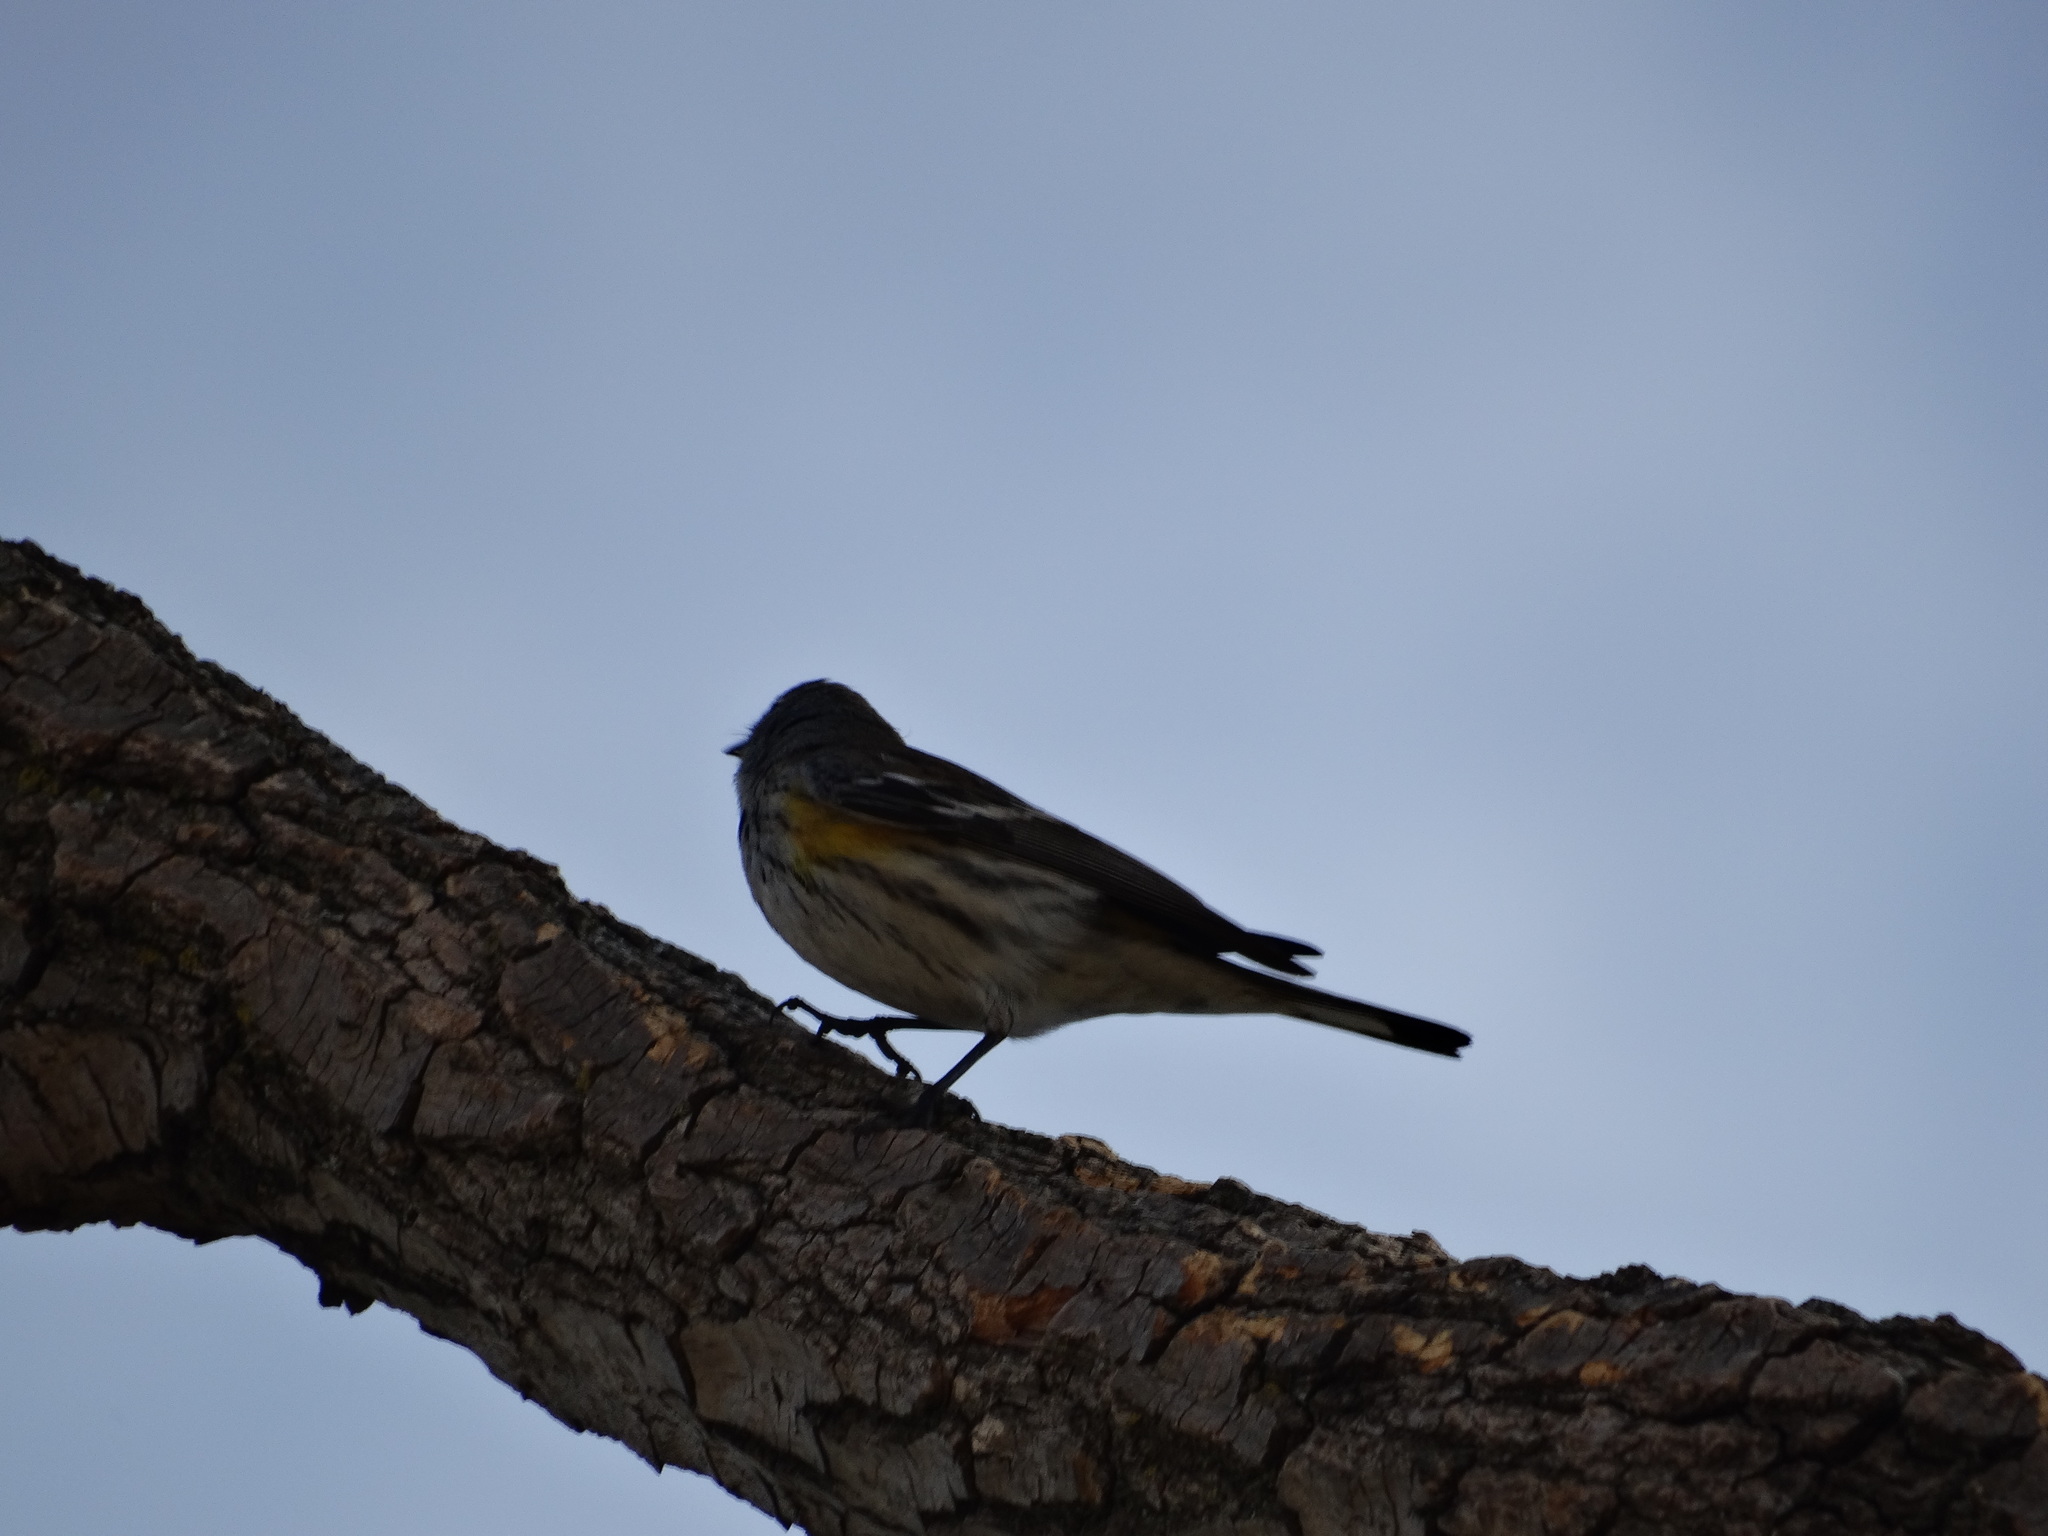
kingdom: Animalia
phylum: Chordata
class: Aves
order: Passeriformes
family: Parulidae
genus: Setophaga
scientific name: Setophaga auduboni
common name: Audubon's warbler
